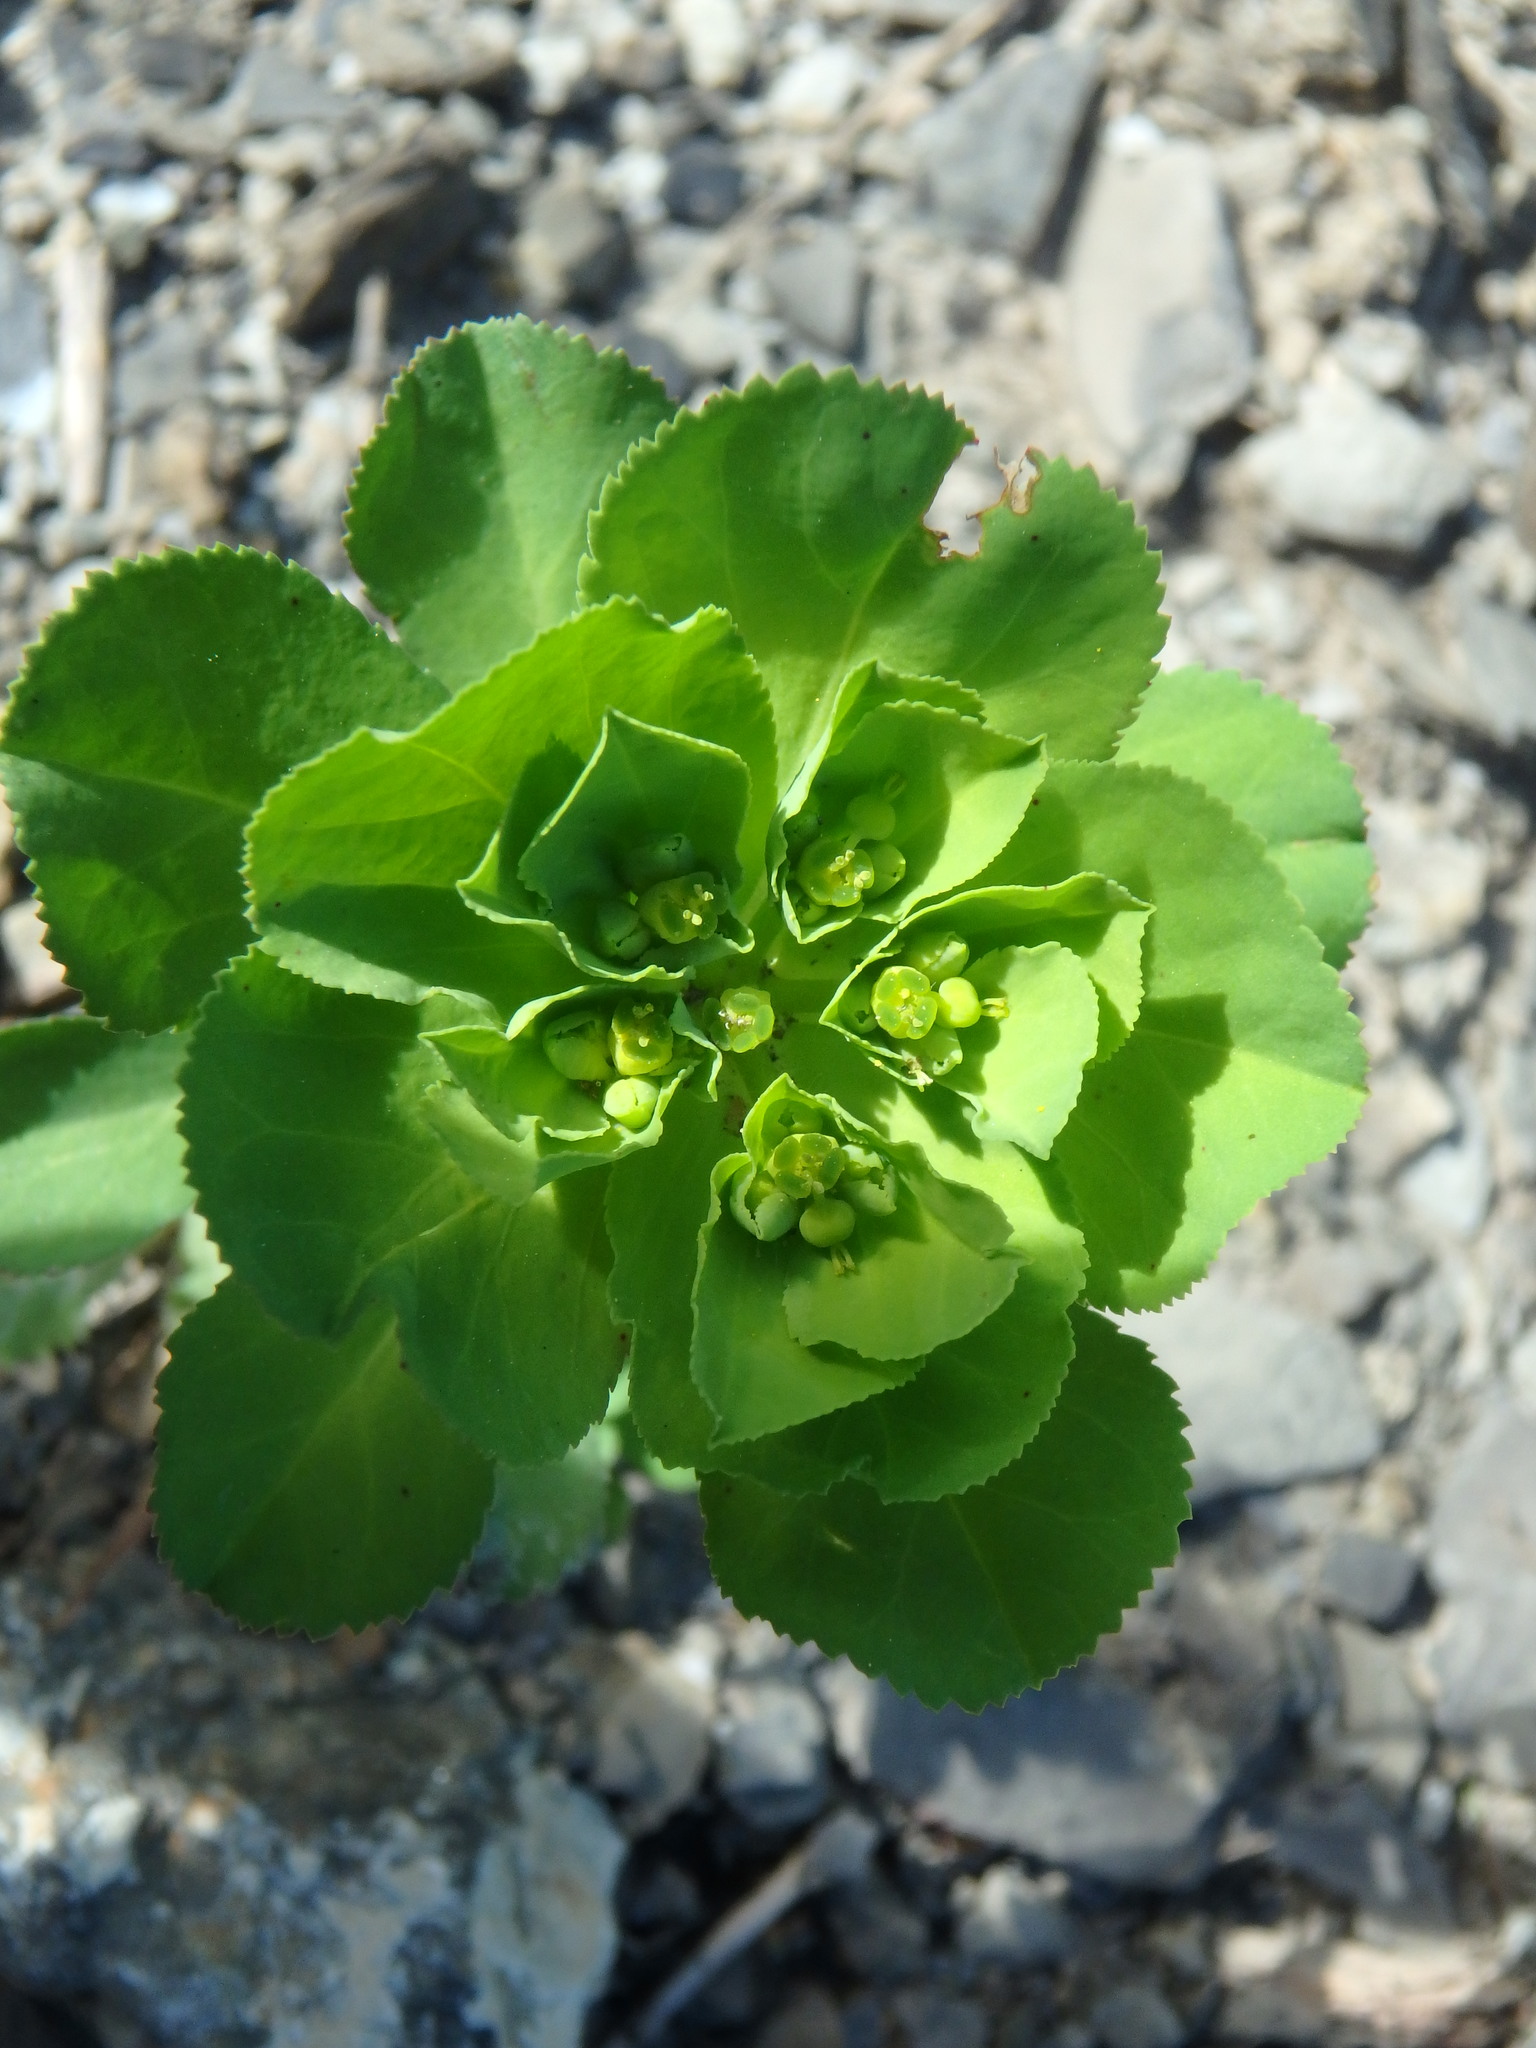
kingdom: Plantae
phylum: Tracheophyta
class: Magnoliopsida
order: Malpighiales
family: Euphorbiaceae
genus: Euphorbia
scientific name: Euphorbia helioscopia
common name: Sun spurge
